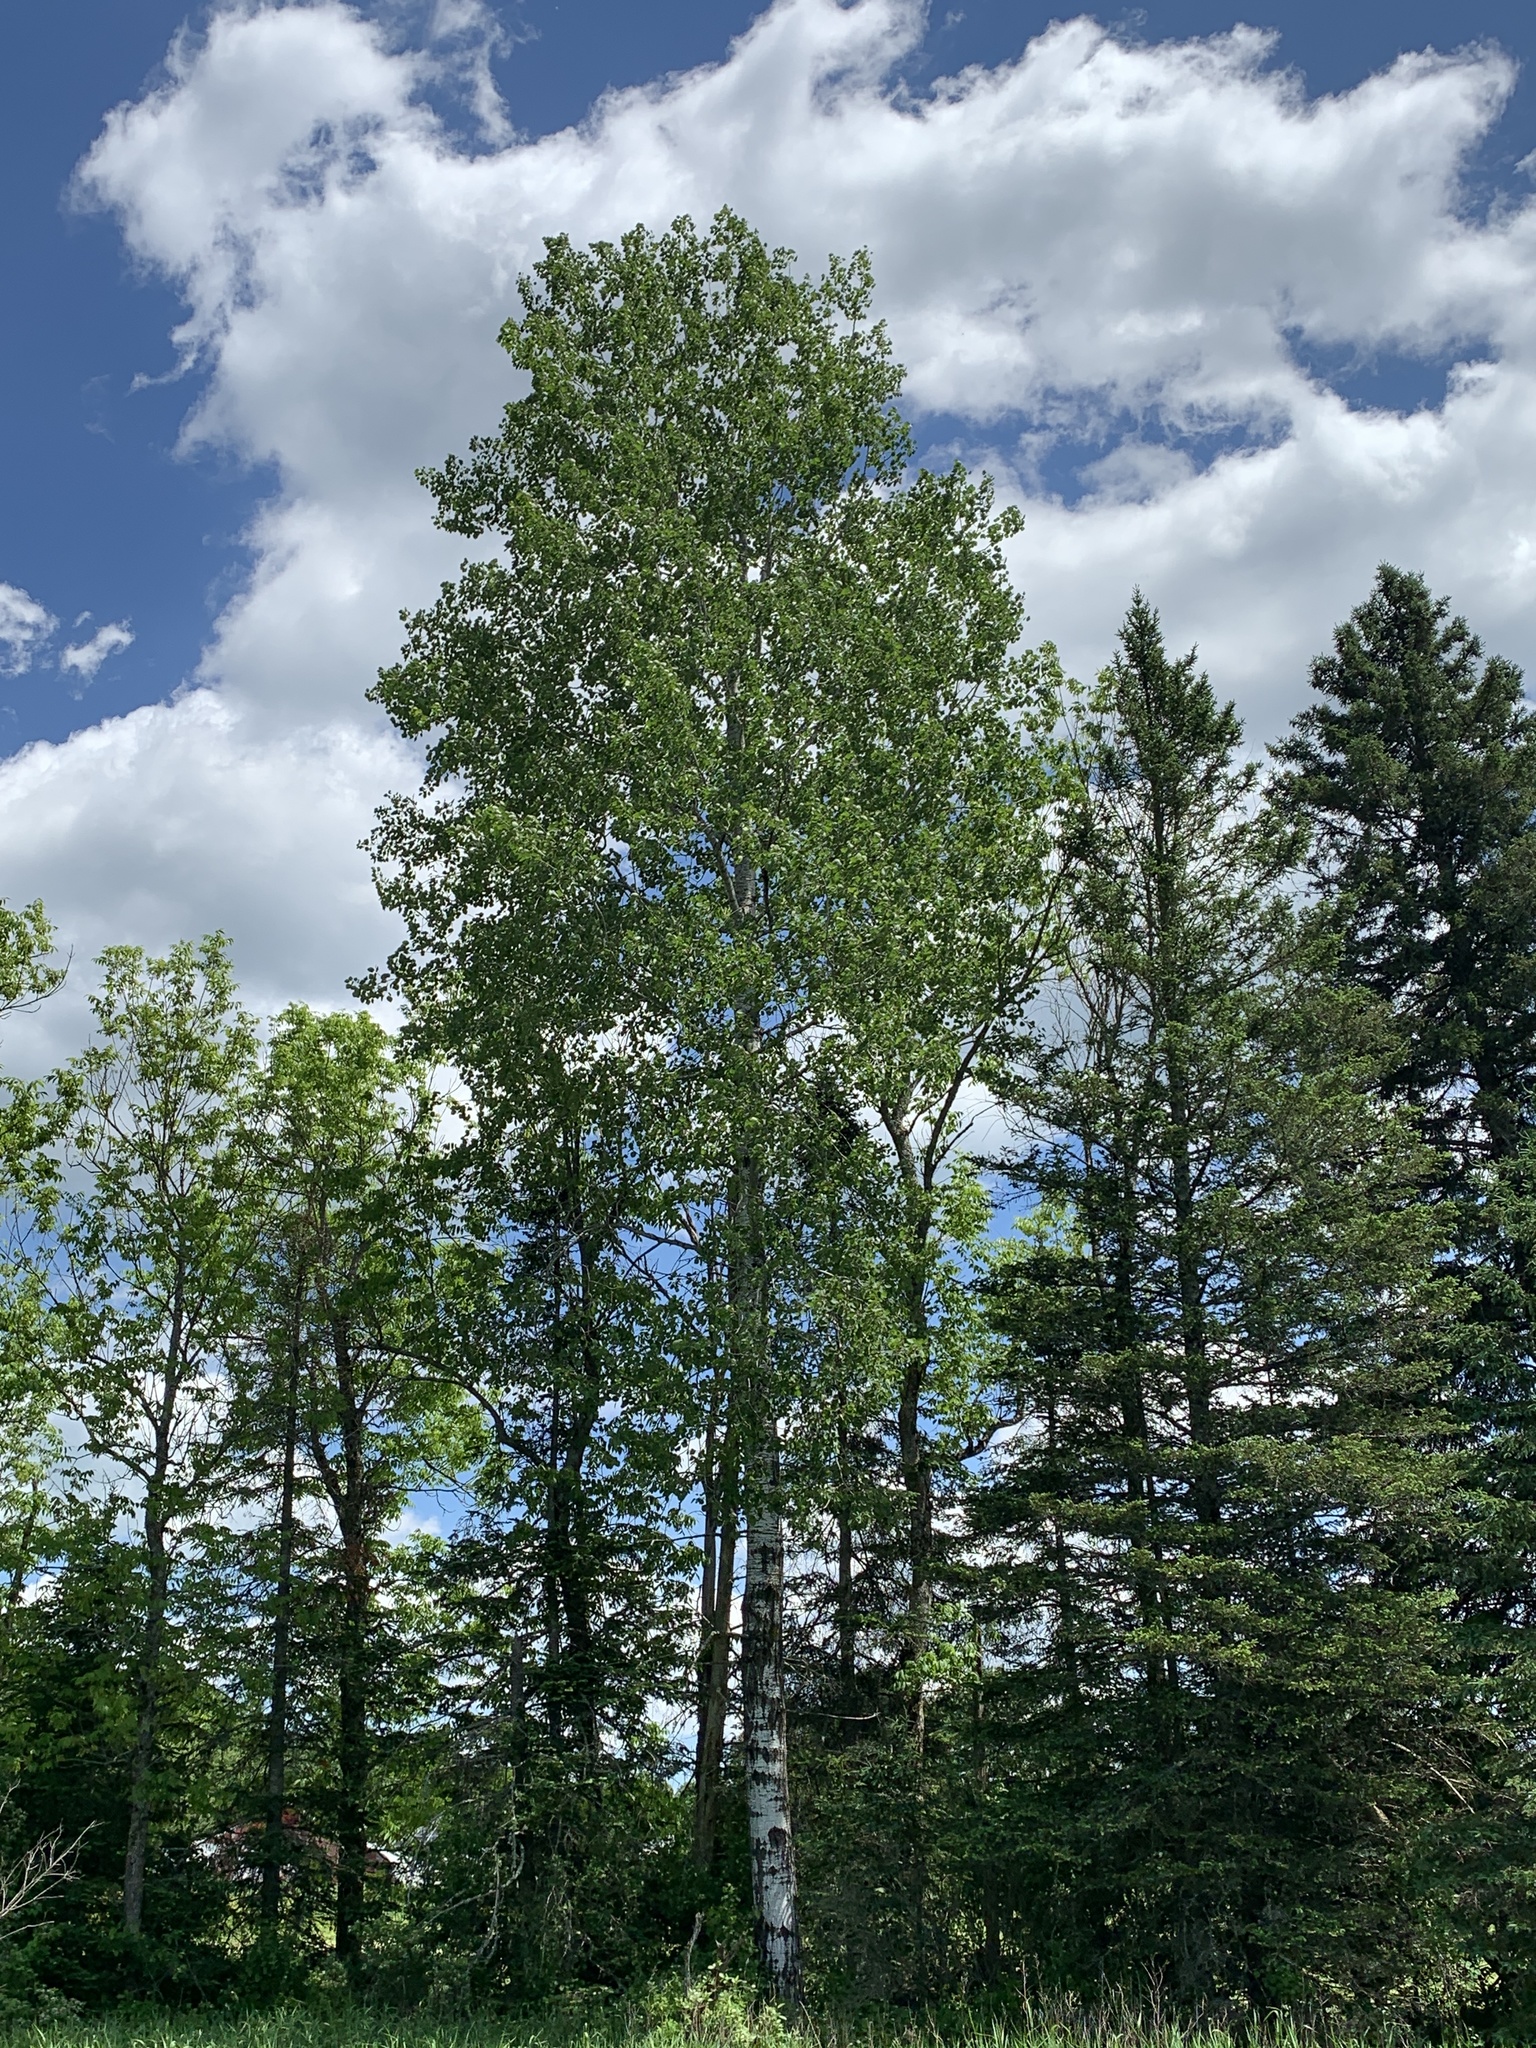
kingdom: Plantae
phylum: Tracheophyta
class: Magnoliopsida
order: Malpighiales
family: Salicaceae
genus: Populus
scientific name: Populus tremuloides
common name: Quaking aspen
